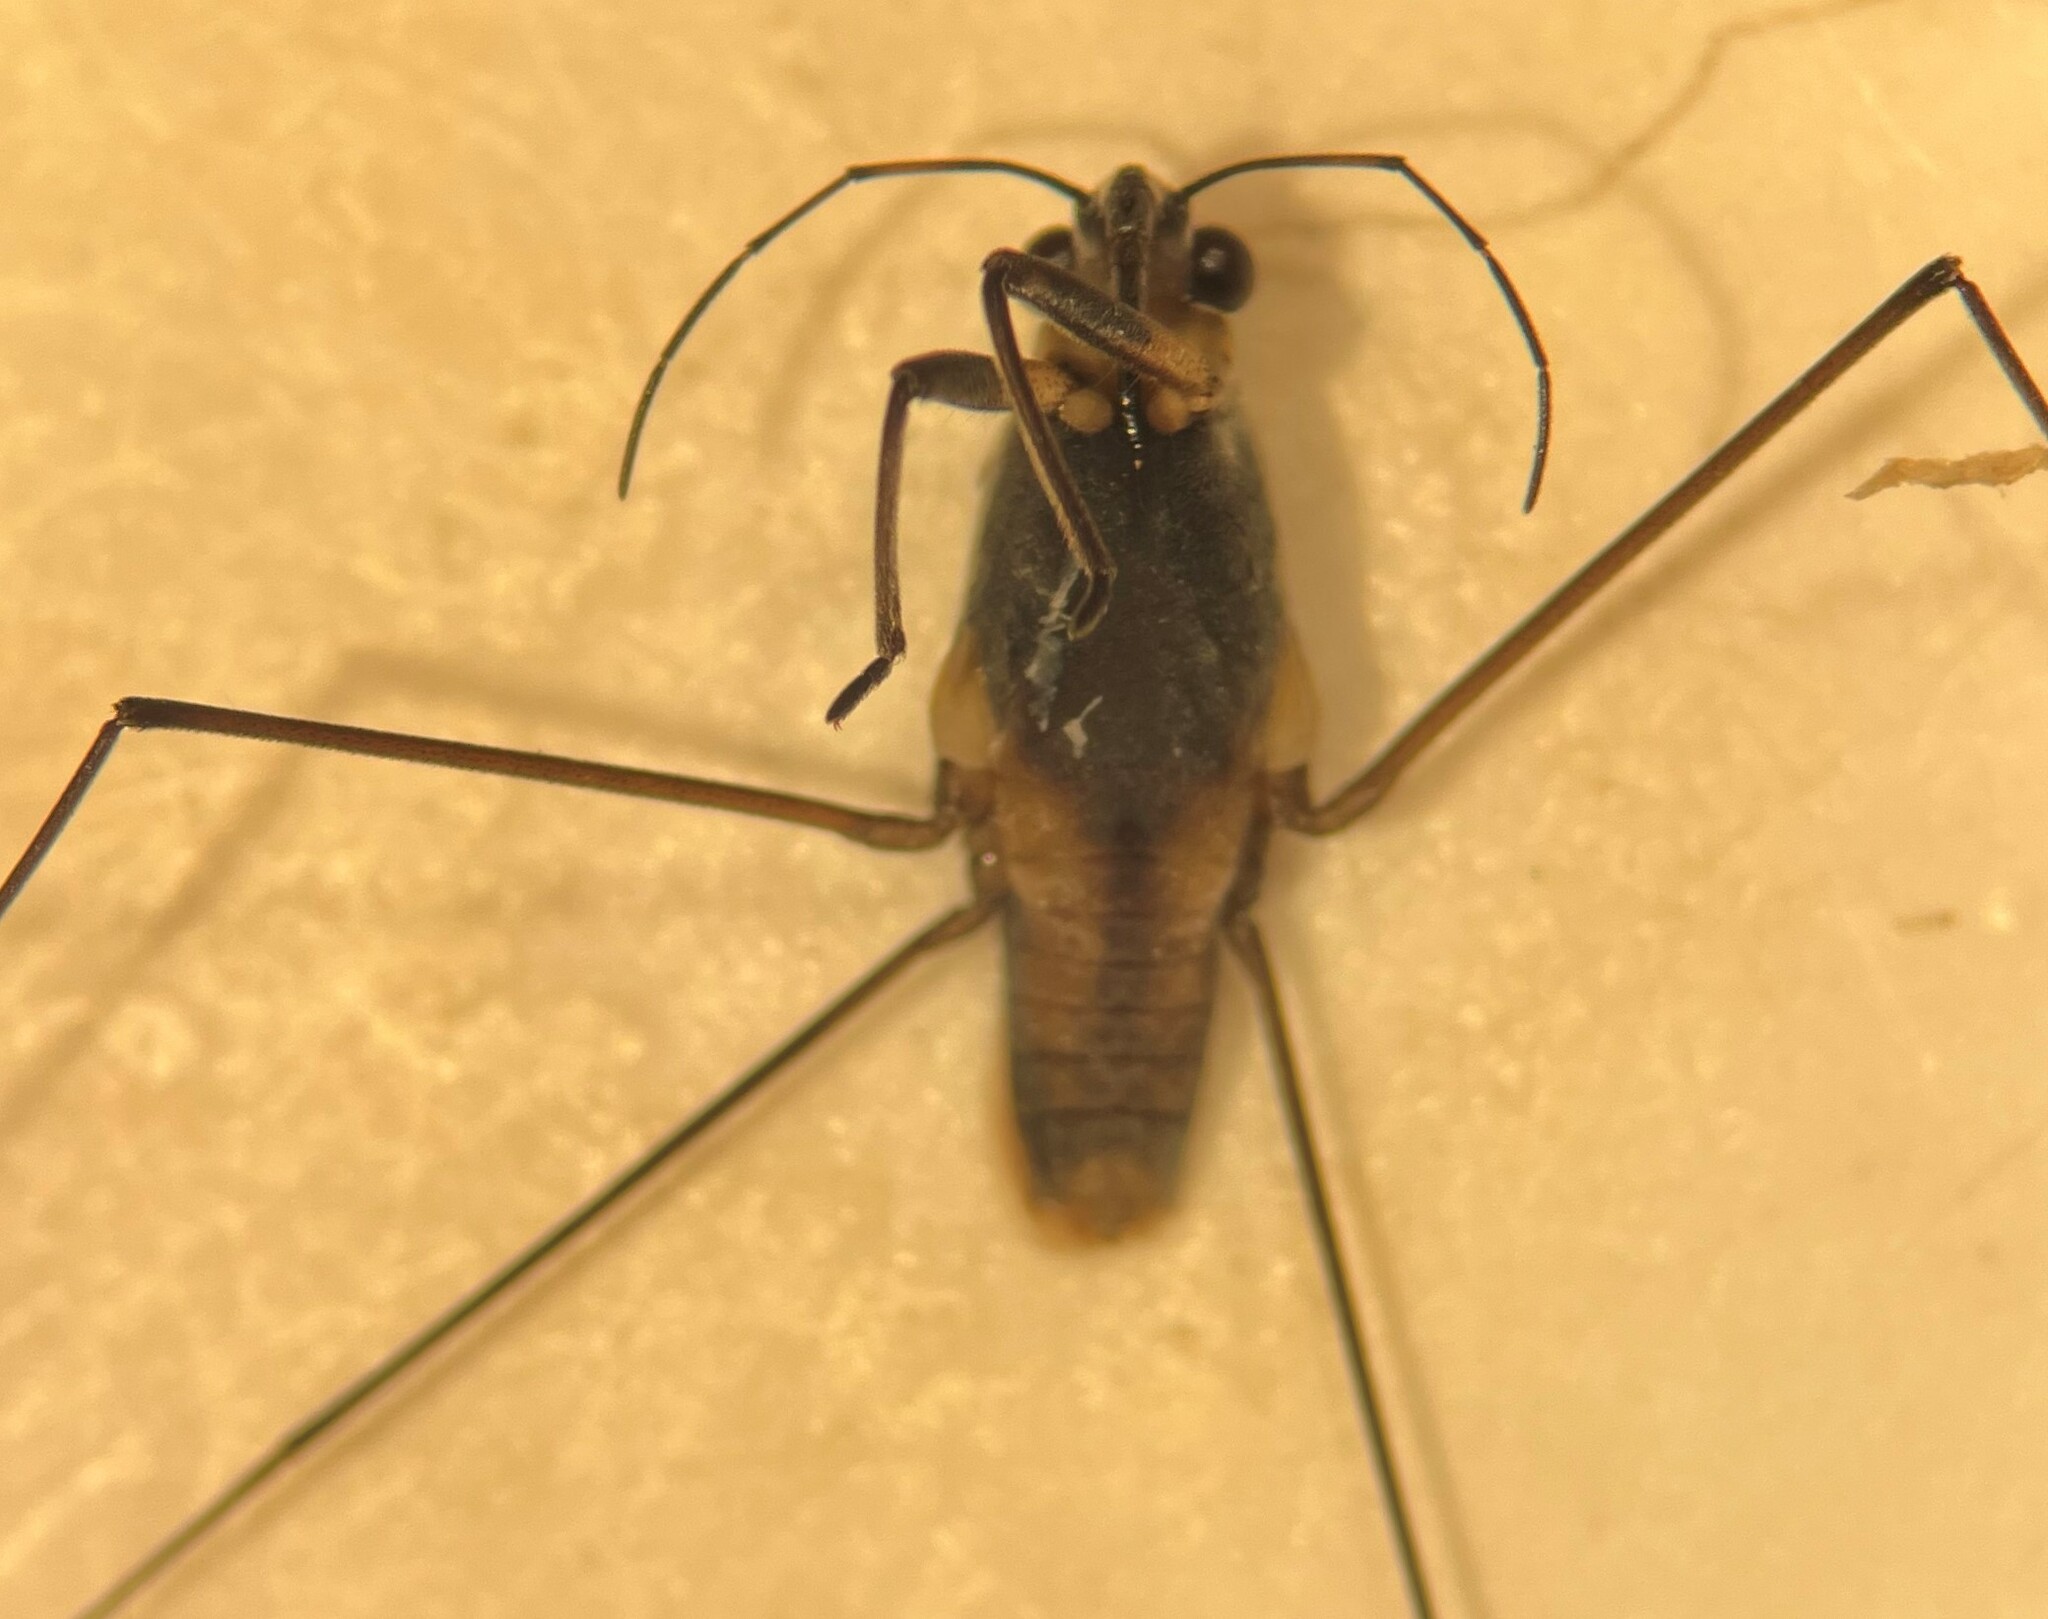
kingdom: Animalia
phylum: Arthropoda
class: Insecta
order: Hemiptera
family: Gerridae
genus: Neogerris
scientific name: Neogerris hesione
